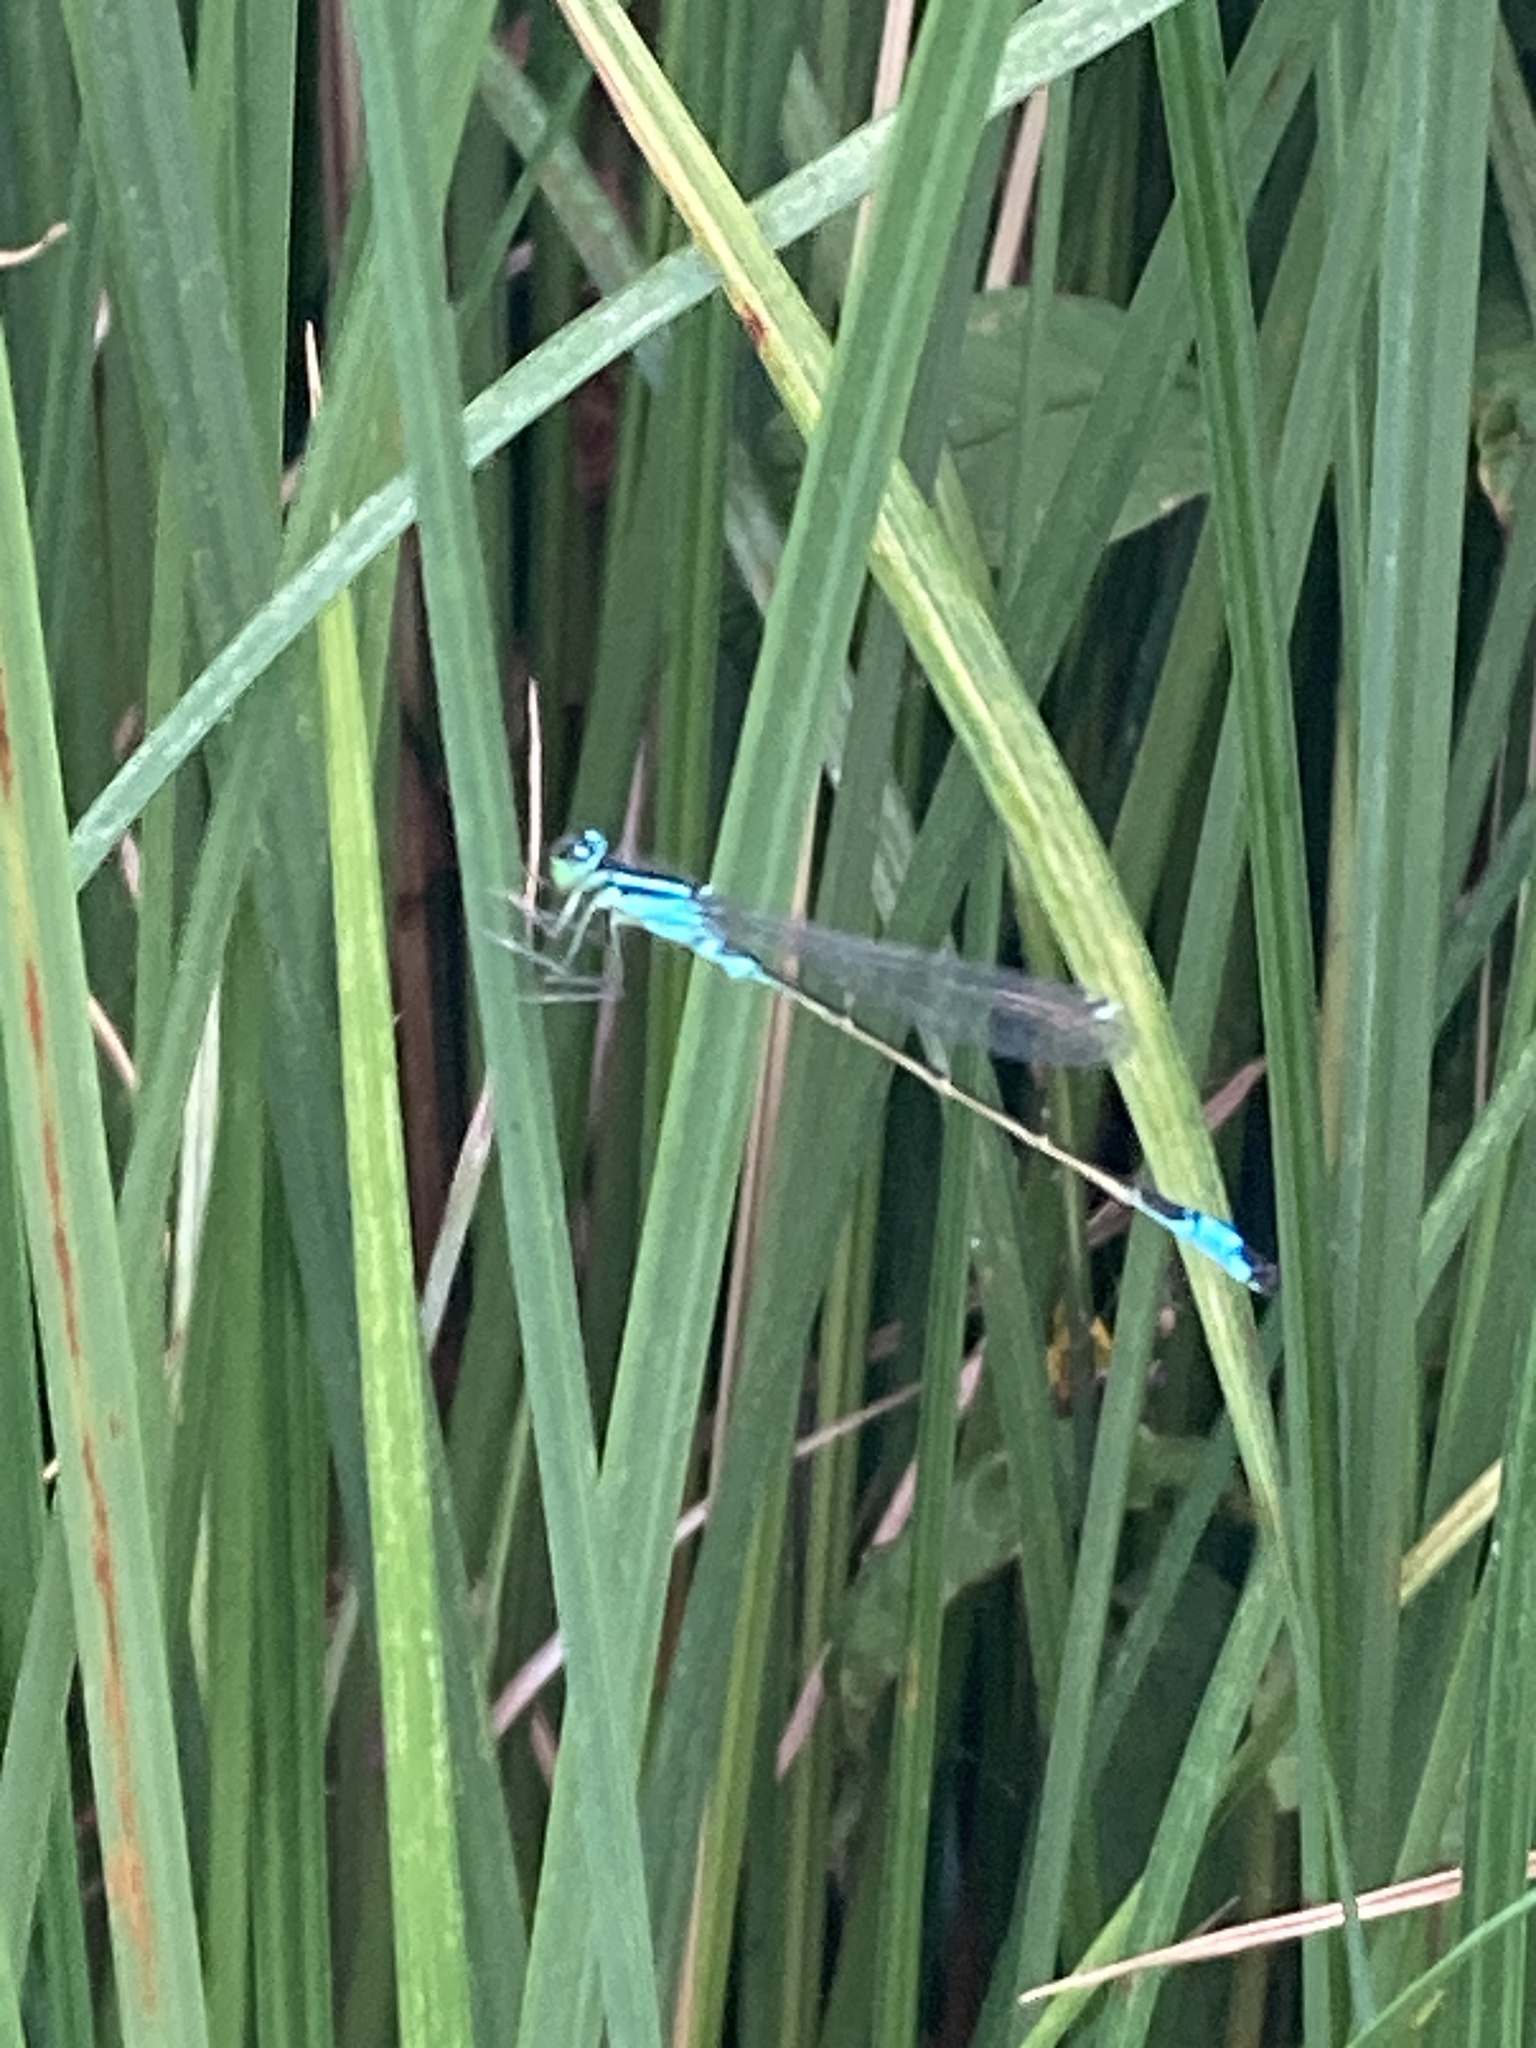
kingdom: Animalia
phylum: Arthropoda
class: Insecta
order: Odonata
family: Coenagrionidae
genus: Ischnura
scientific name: Ischnura elegans
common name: Blue-tailed damselfly
